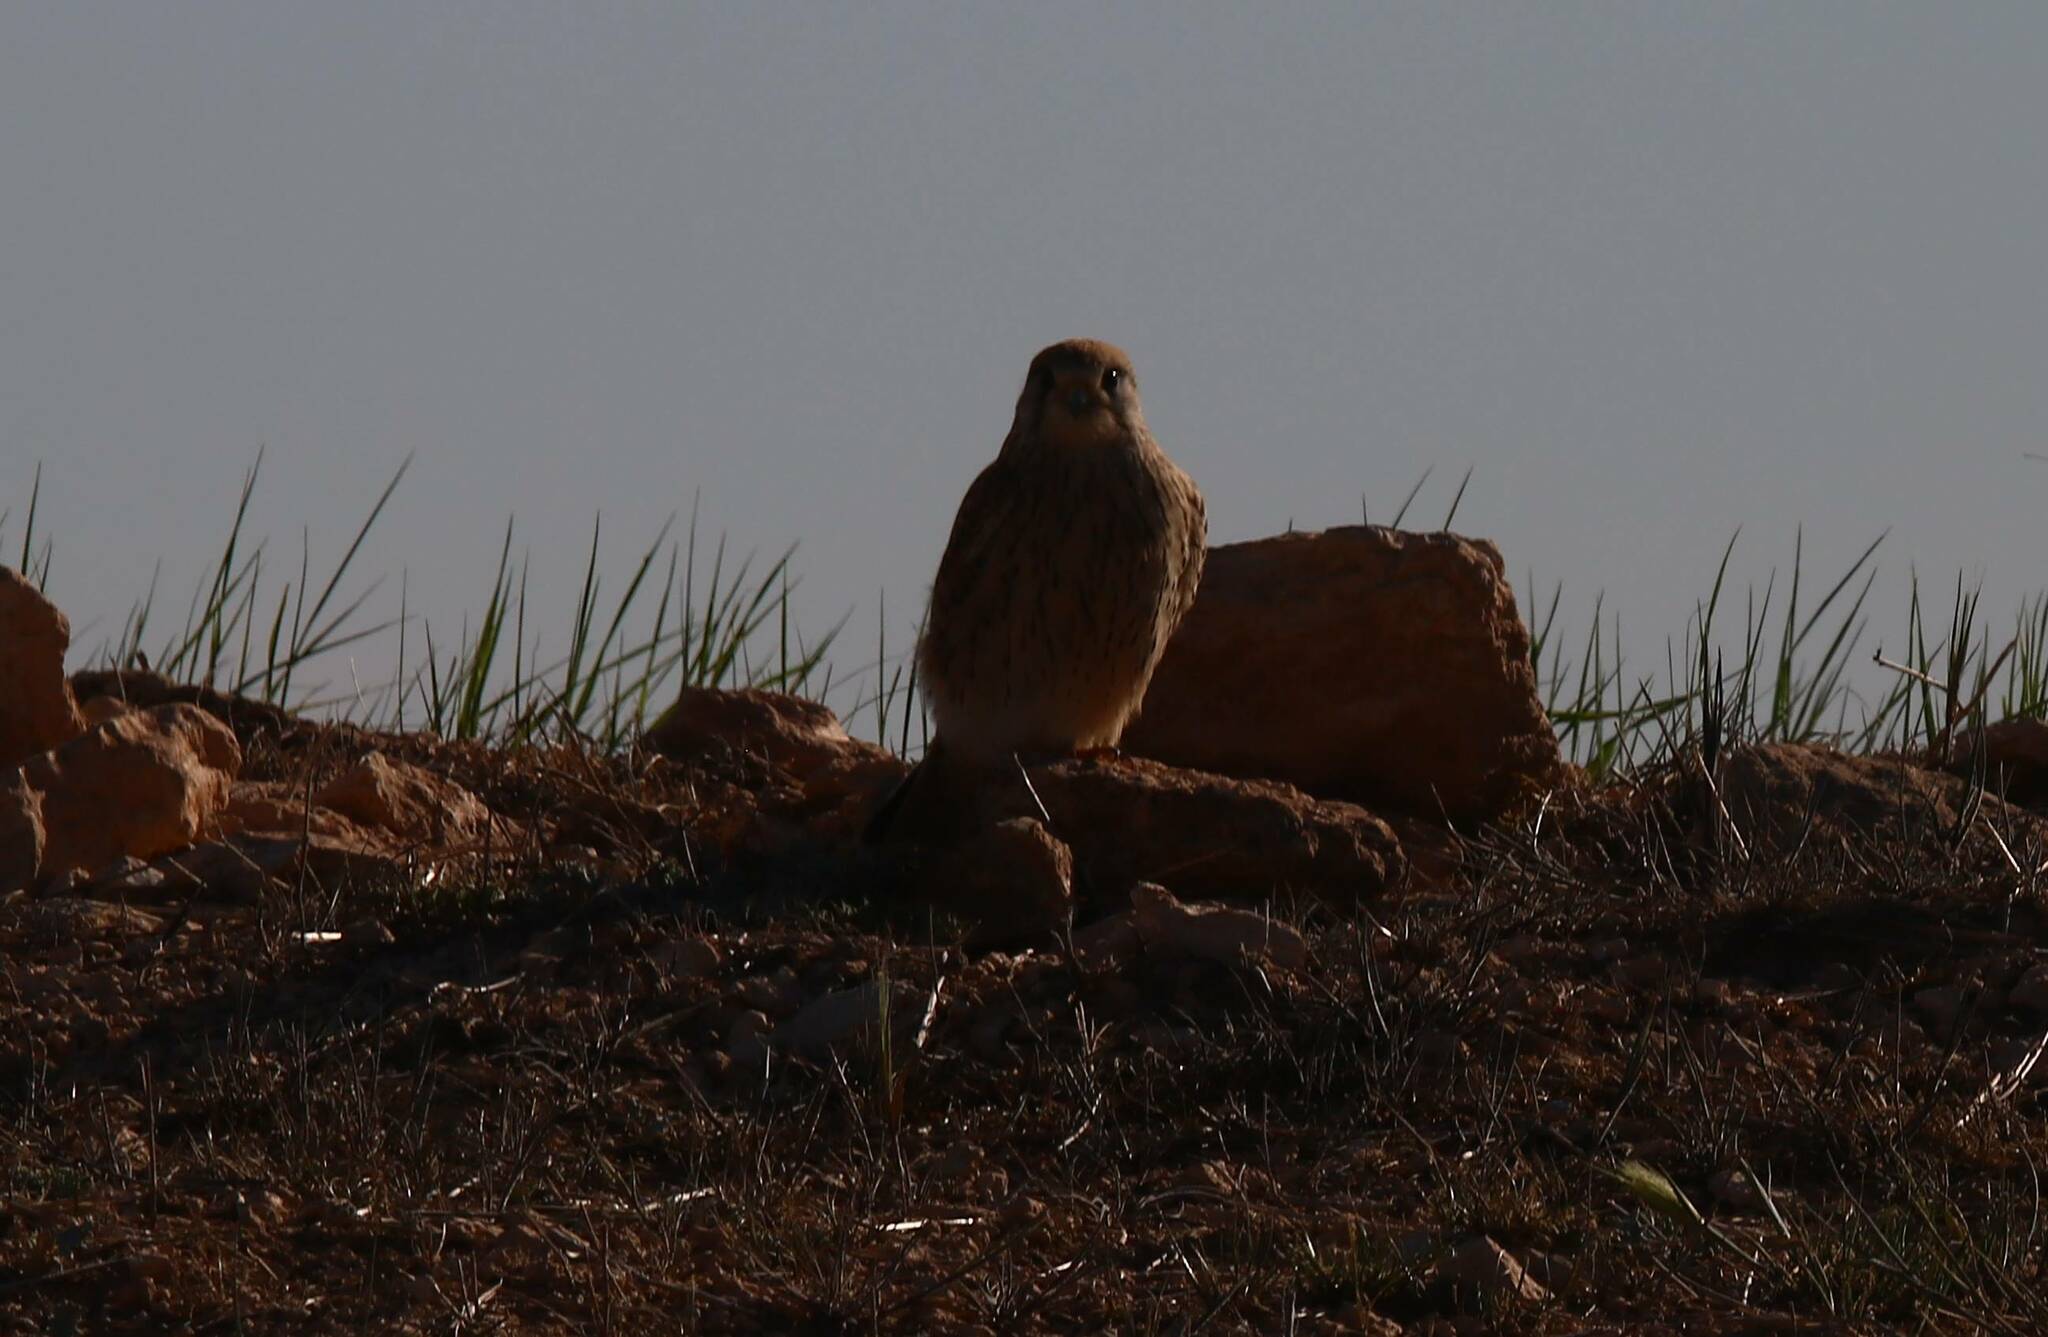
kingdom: Animalia
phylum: Chordata
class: Aves
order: Falconiformes
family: Falconidae
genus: Falco
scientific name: Falco tinnunculus
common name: Common kestrel
